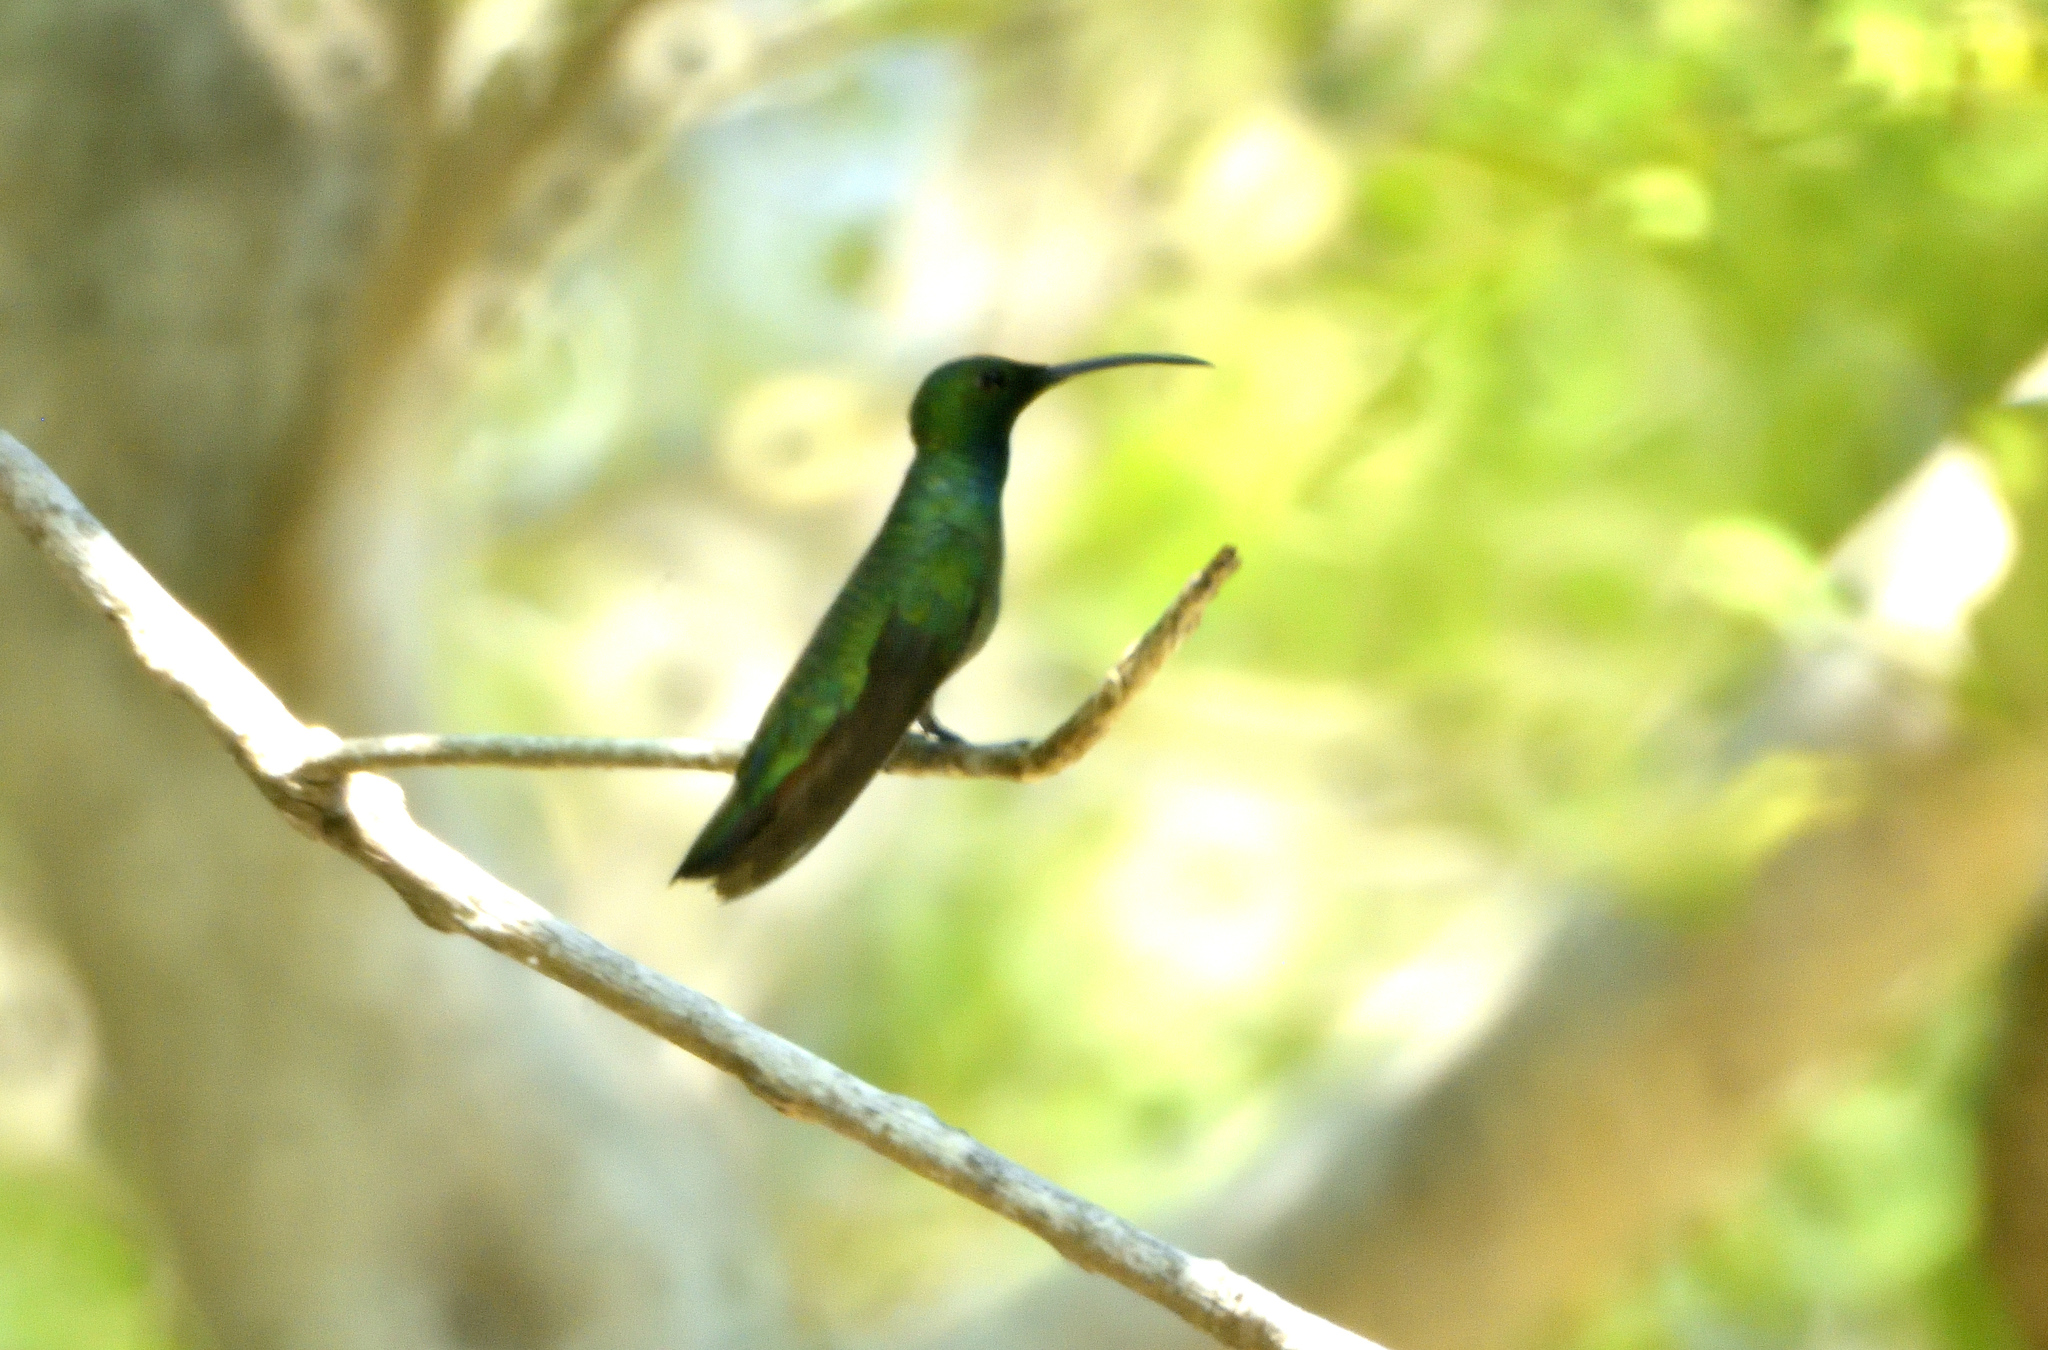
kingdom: Animalia
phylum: Chordata
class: Aves
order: Apodiformes
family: Trochilidae
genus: Anthracothorax
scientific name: Anthracothorax prevostii
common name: Green-breasted mango
